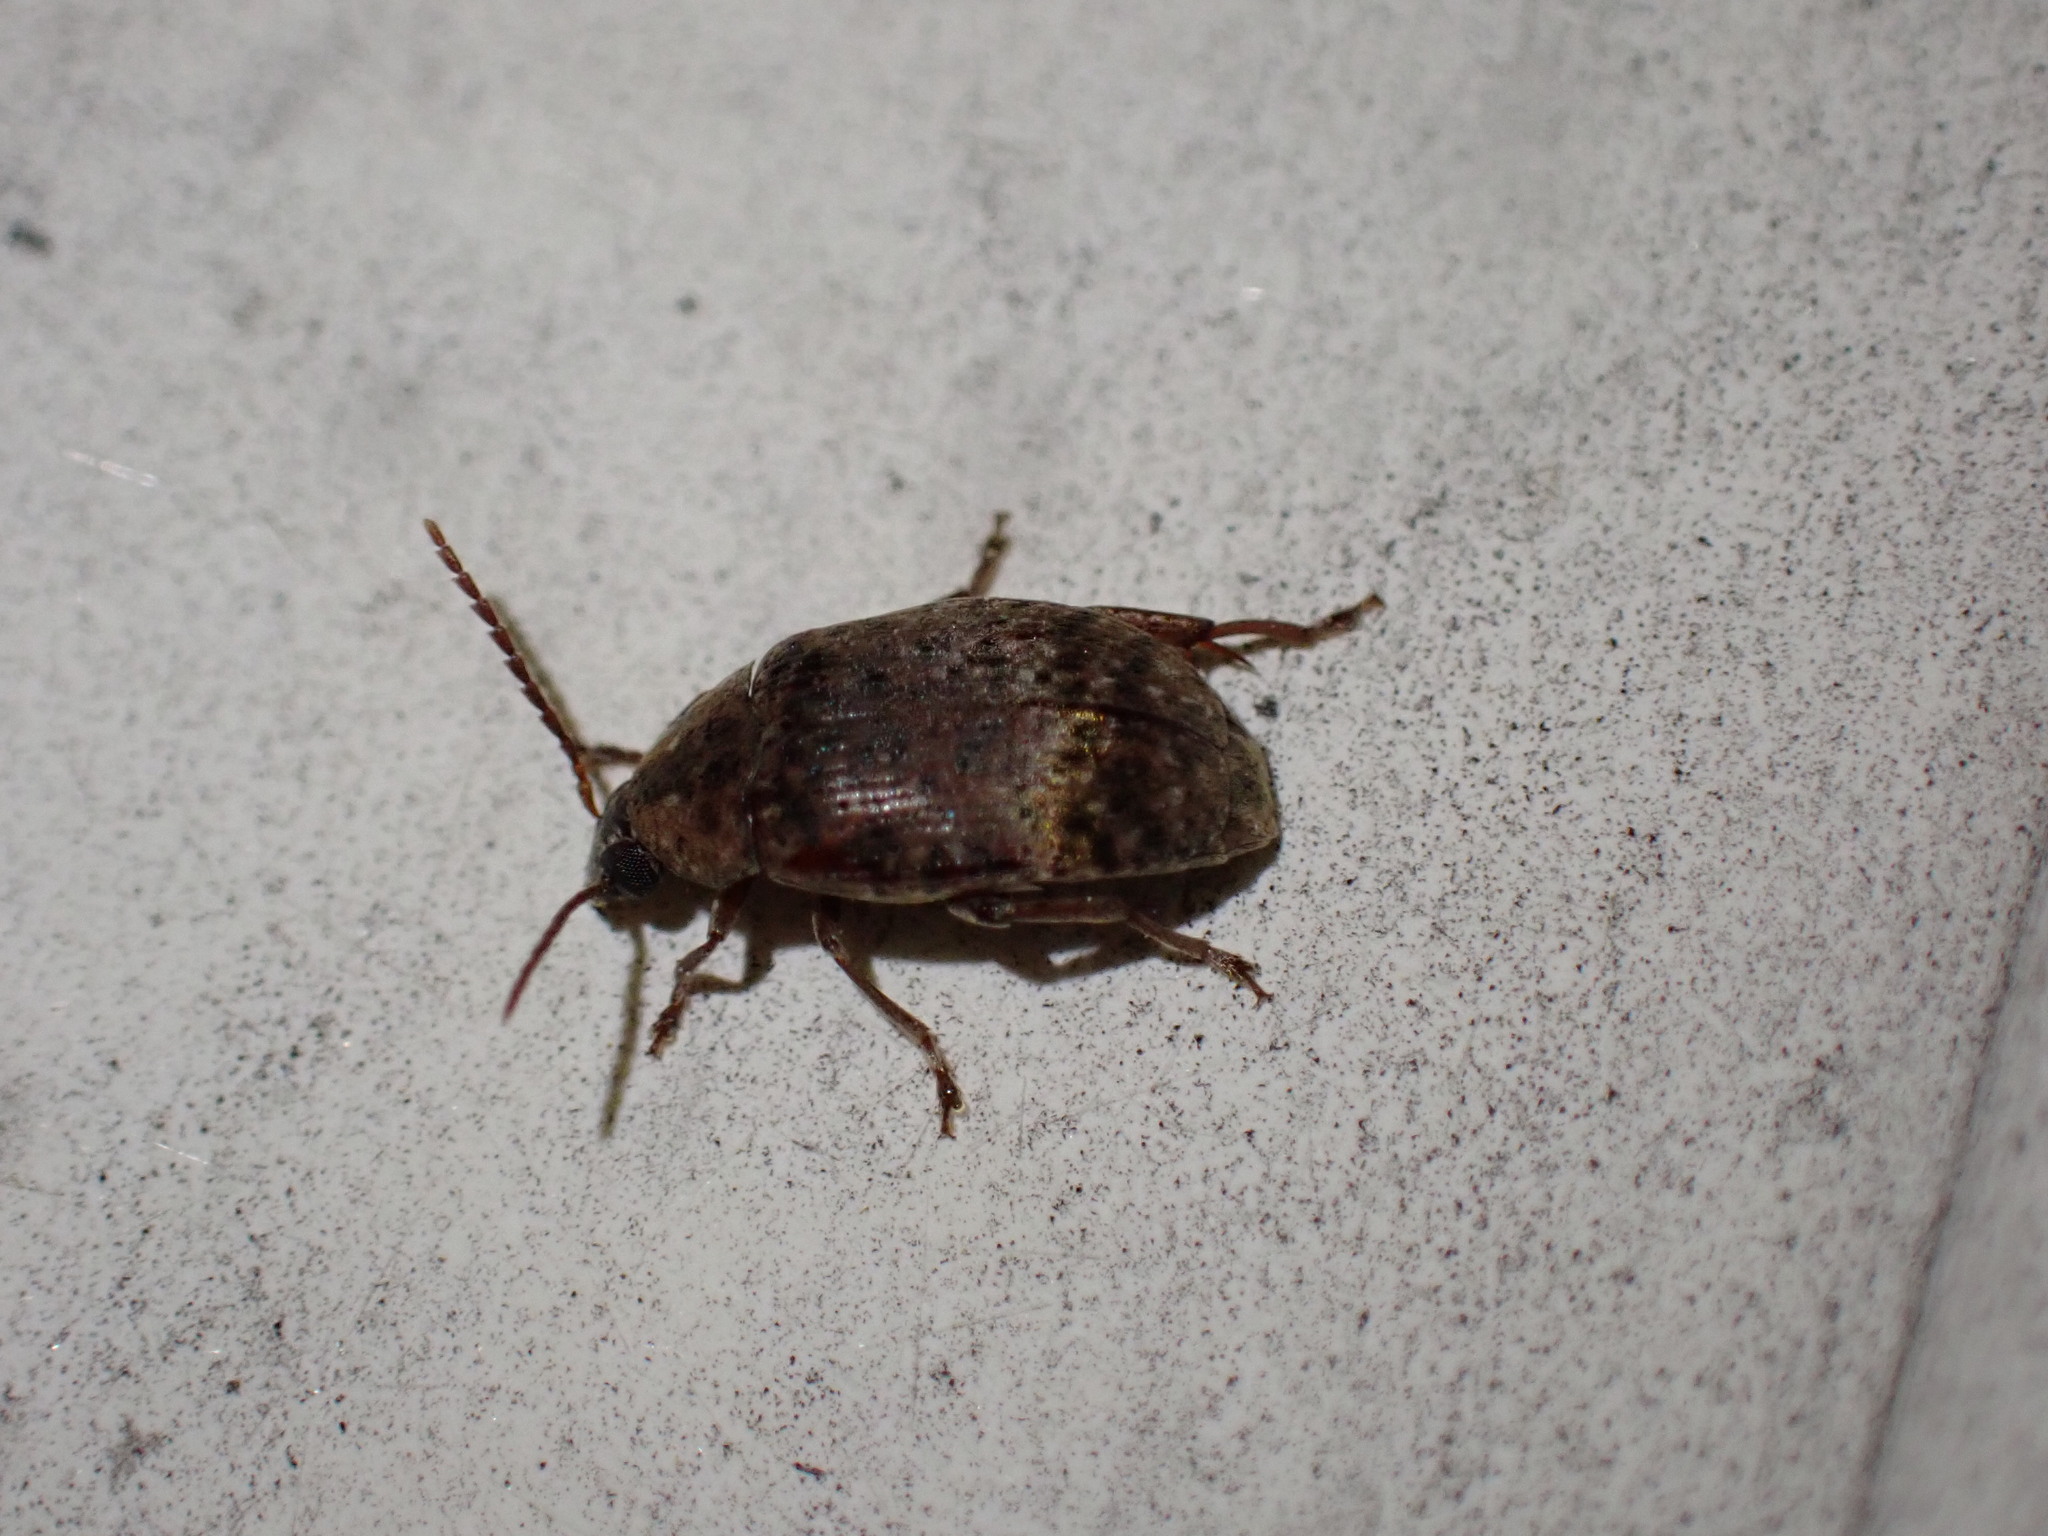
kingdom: Animalia
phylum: Arthropoda
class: Insecta
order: Coleoptera
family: Chrysomelidae
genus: Amblycerus
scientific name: Amblycerus robiniae
